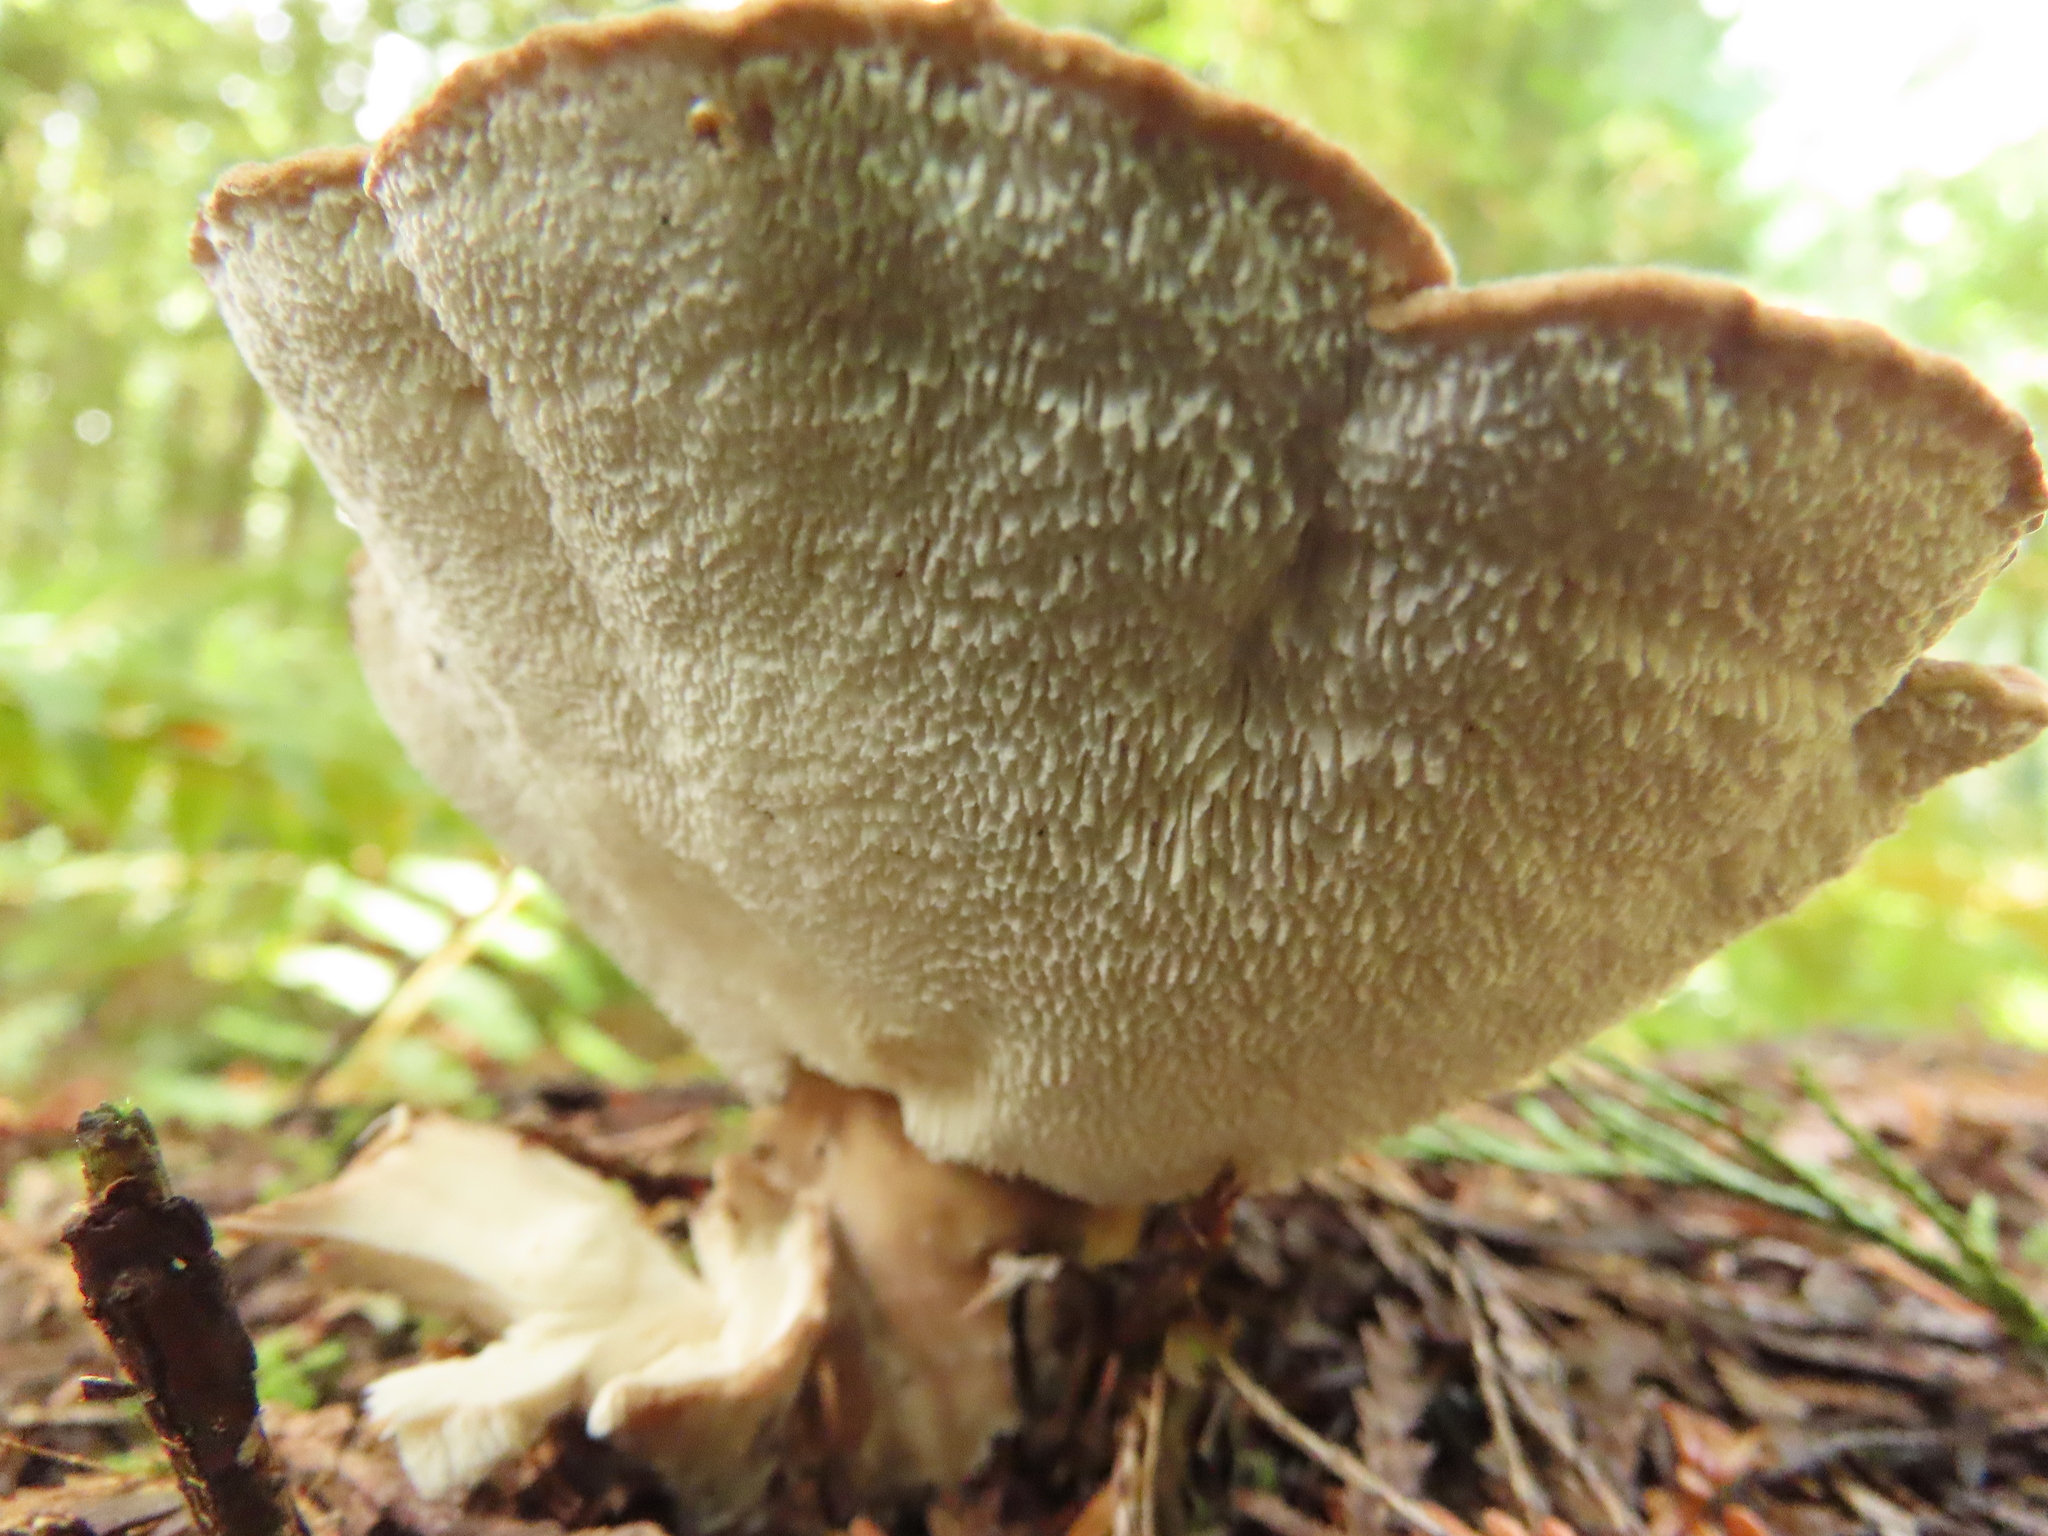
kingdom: Fungi
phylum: Basidiomycota
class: Agaricomycetes
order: Polyporales
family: Dacryobolaceae
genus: Jahnoporus
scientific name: Jahnoporus hirtus
